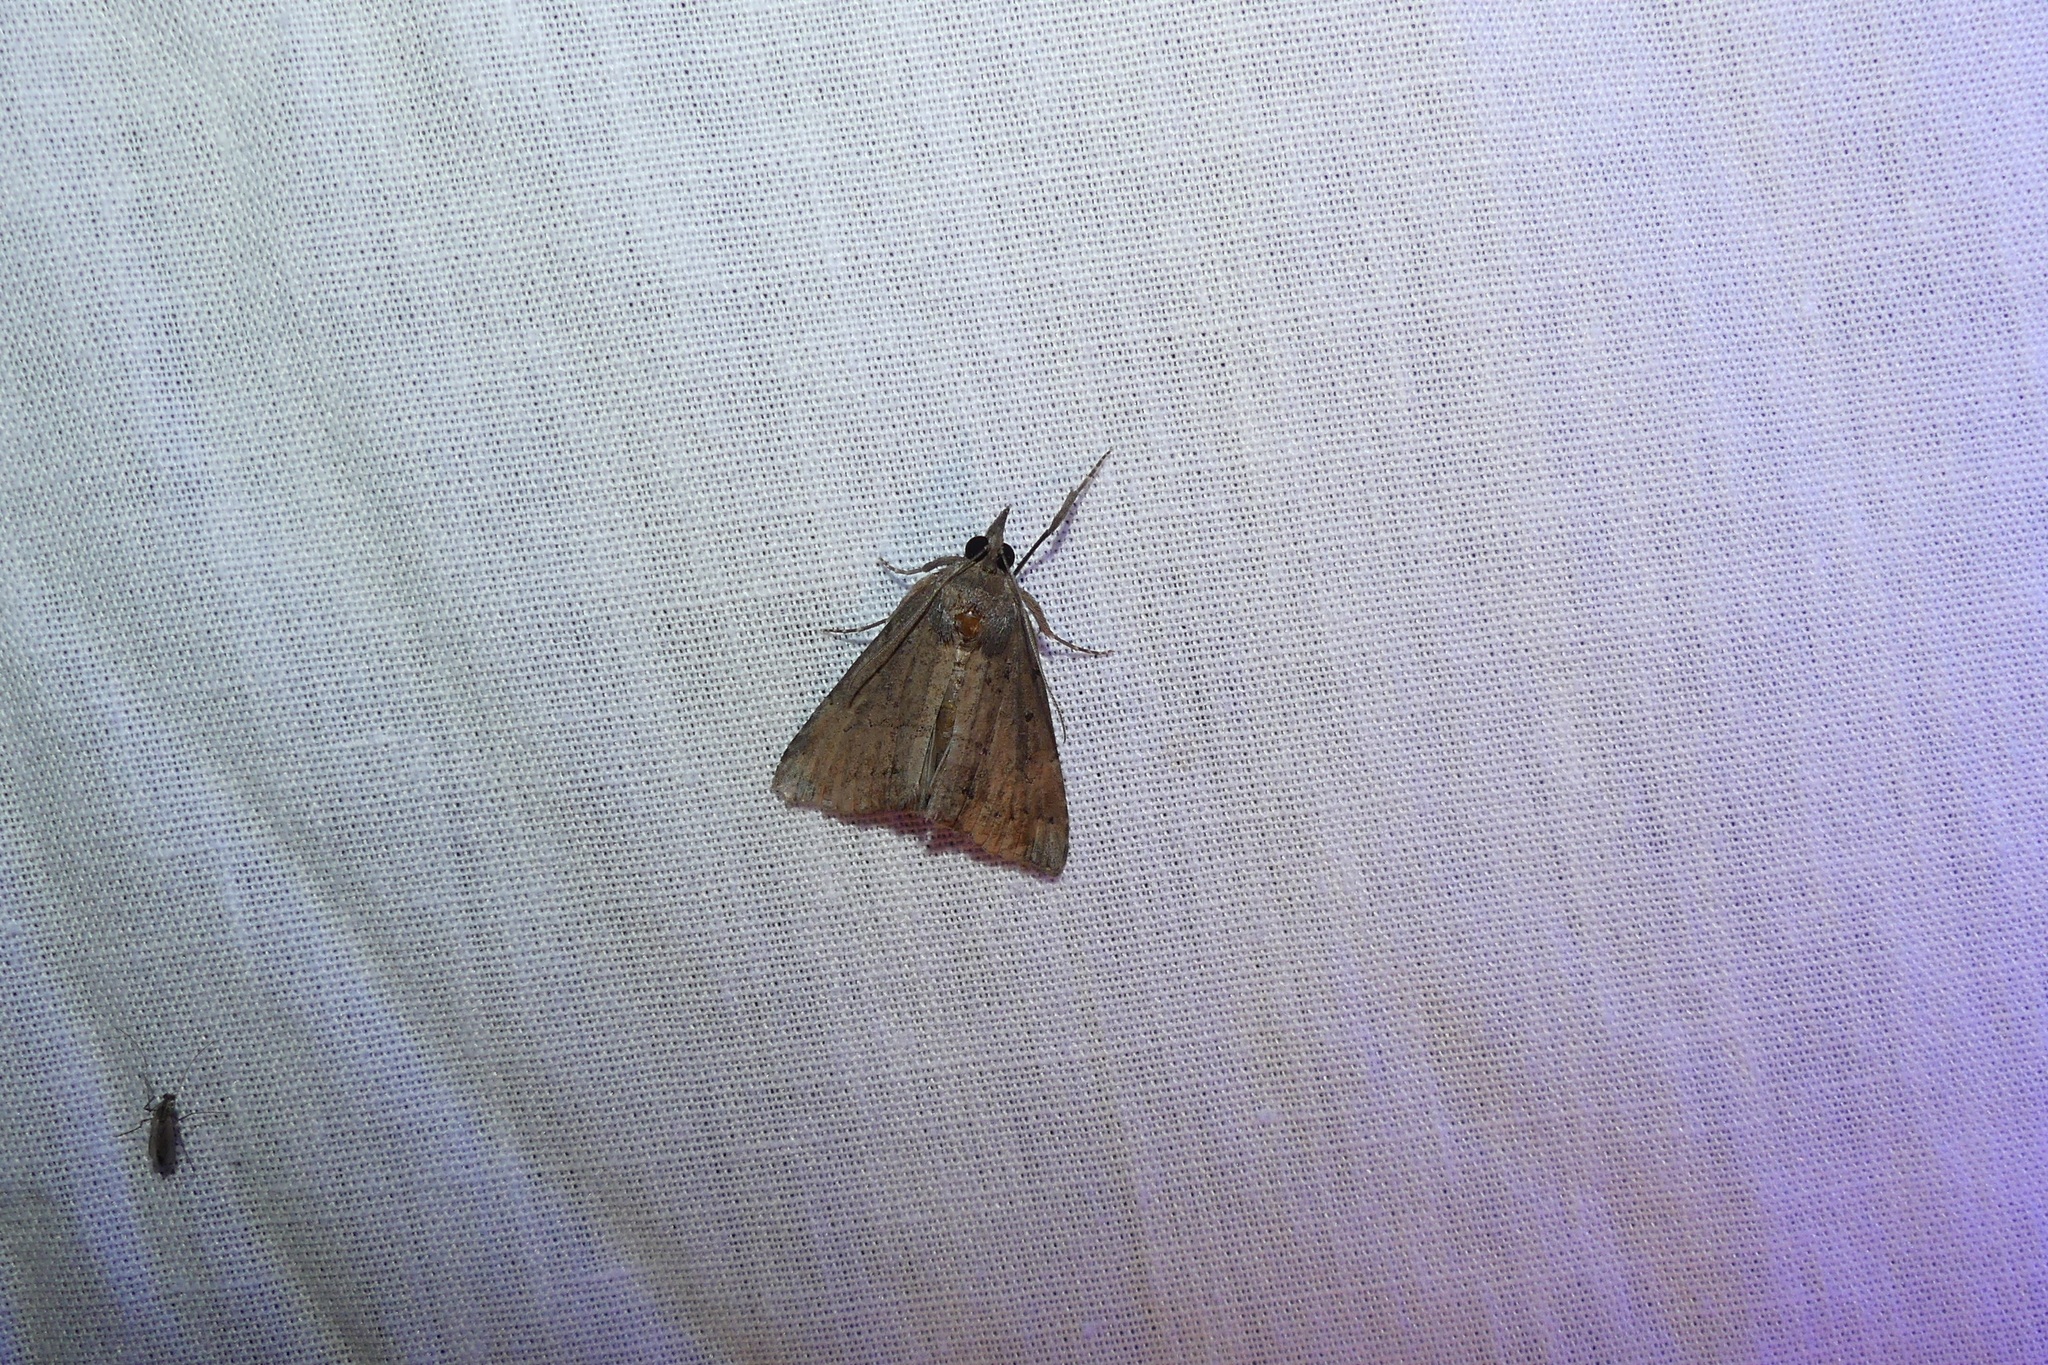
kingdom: Animalia
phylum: Arthropoda
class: Insecta
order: Lepidoptera
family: Erebidae
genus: Hypena
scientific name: Hypena scabra
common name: Green cloverworm
